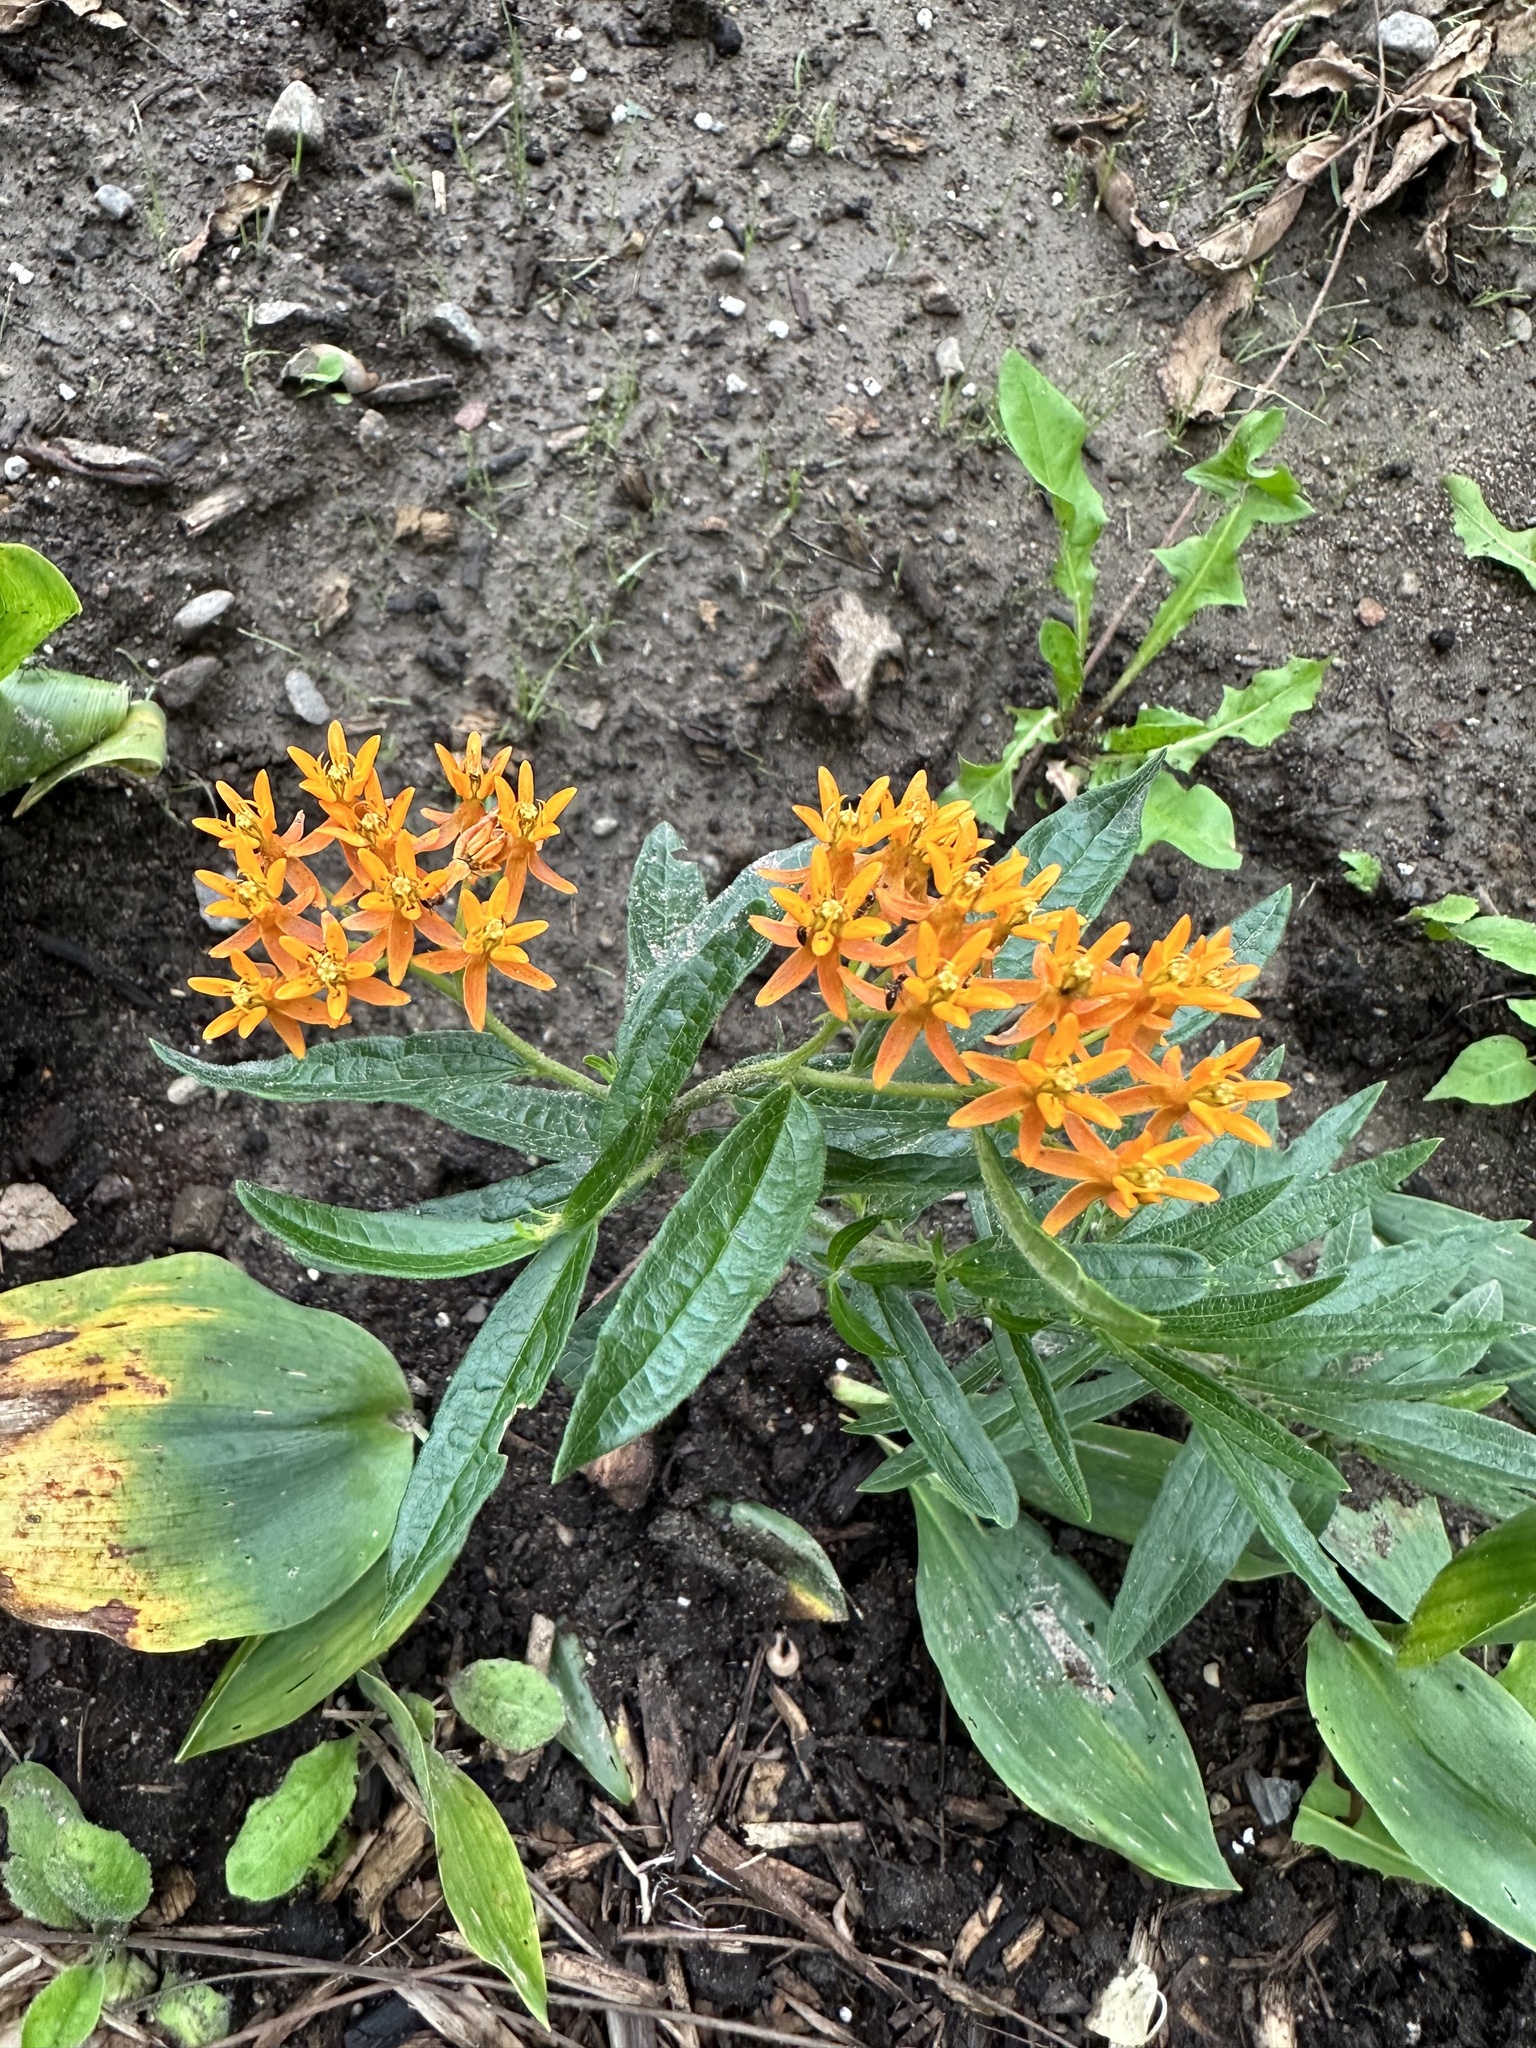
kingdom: Plantae
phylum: Tracheophyta
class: Magnoliopsida
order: Gentianales
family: Apocynaceae
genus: Asclepias
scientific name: Asclepias tuberosa
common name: Butterfly milkweed
